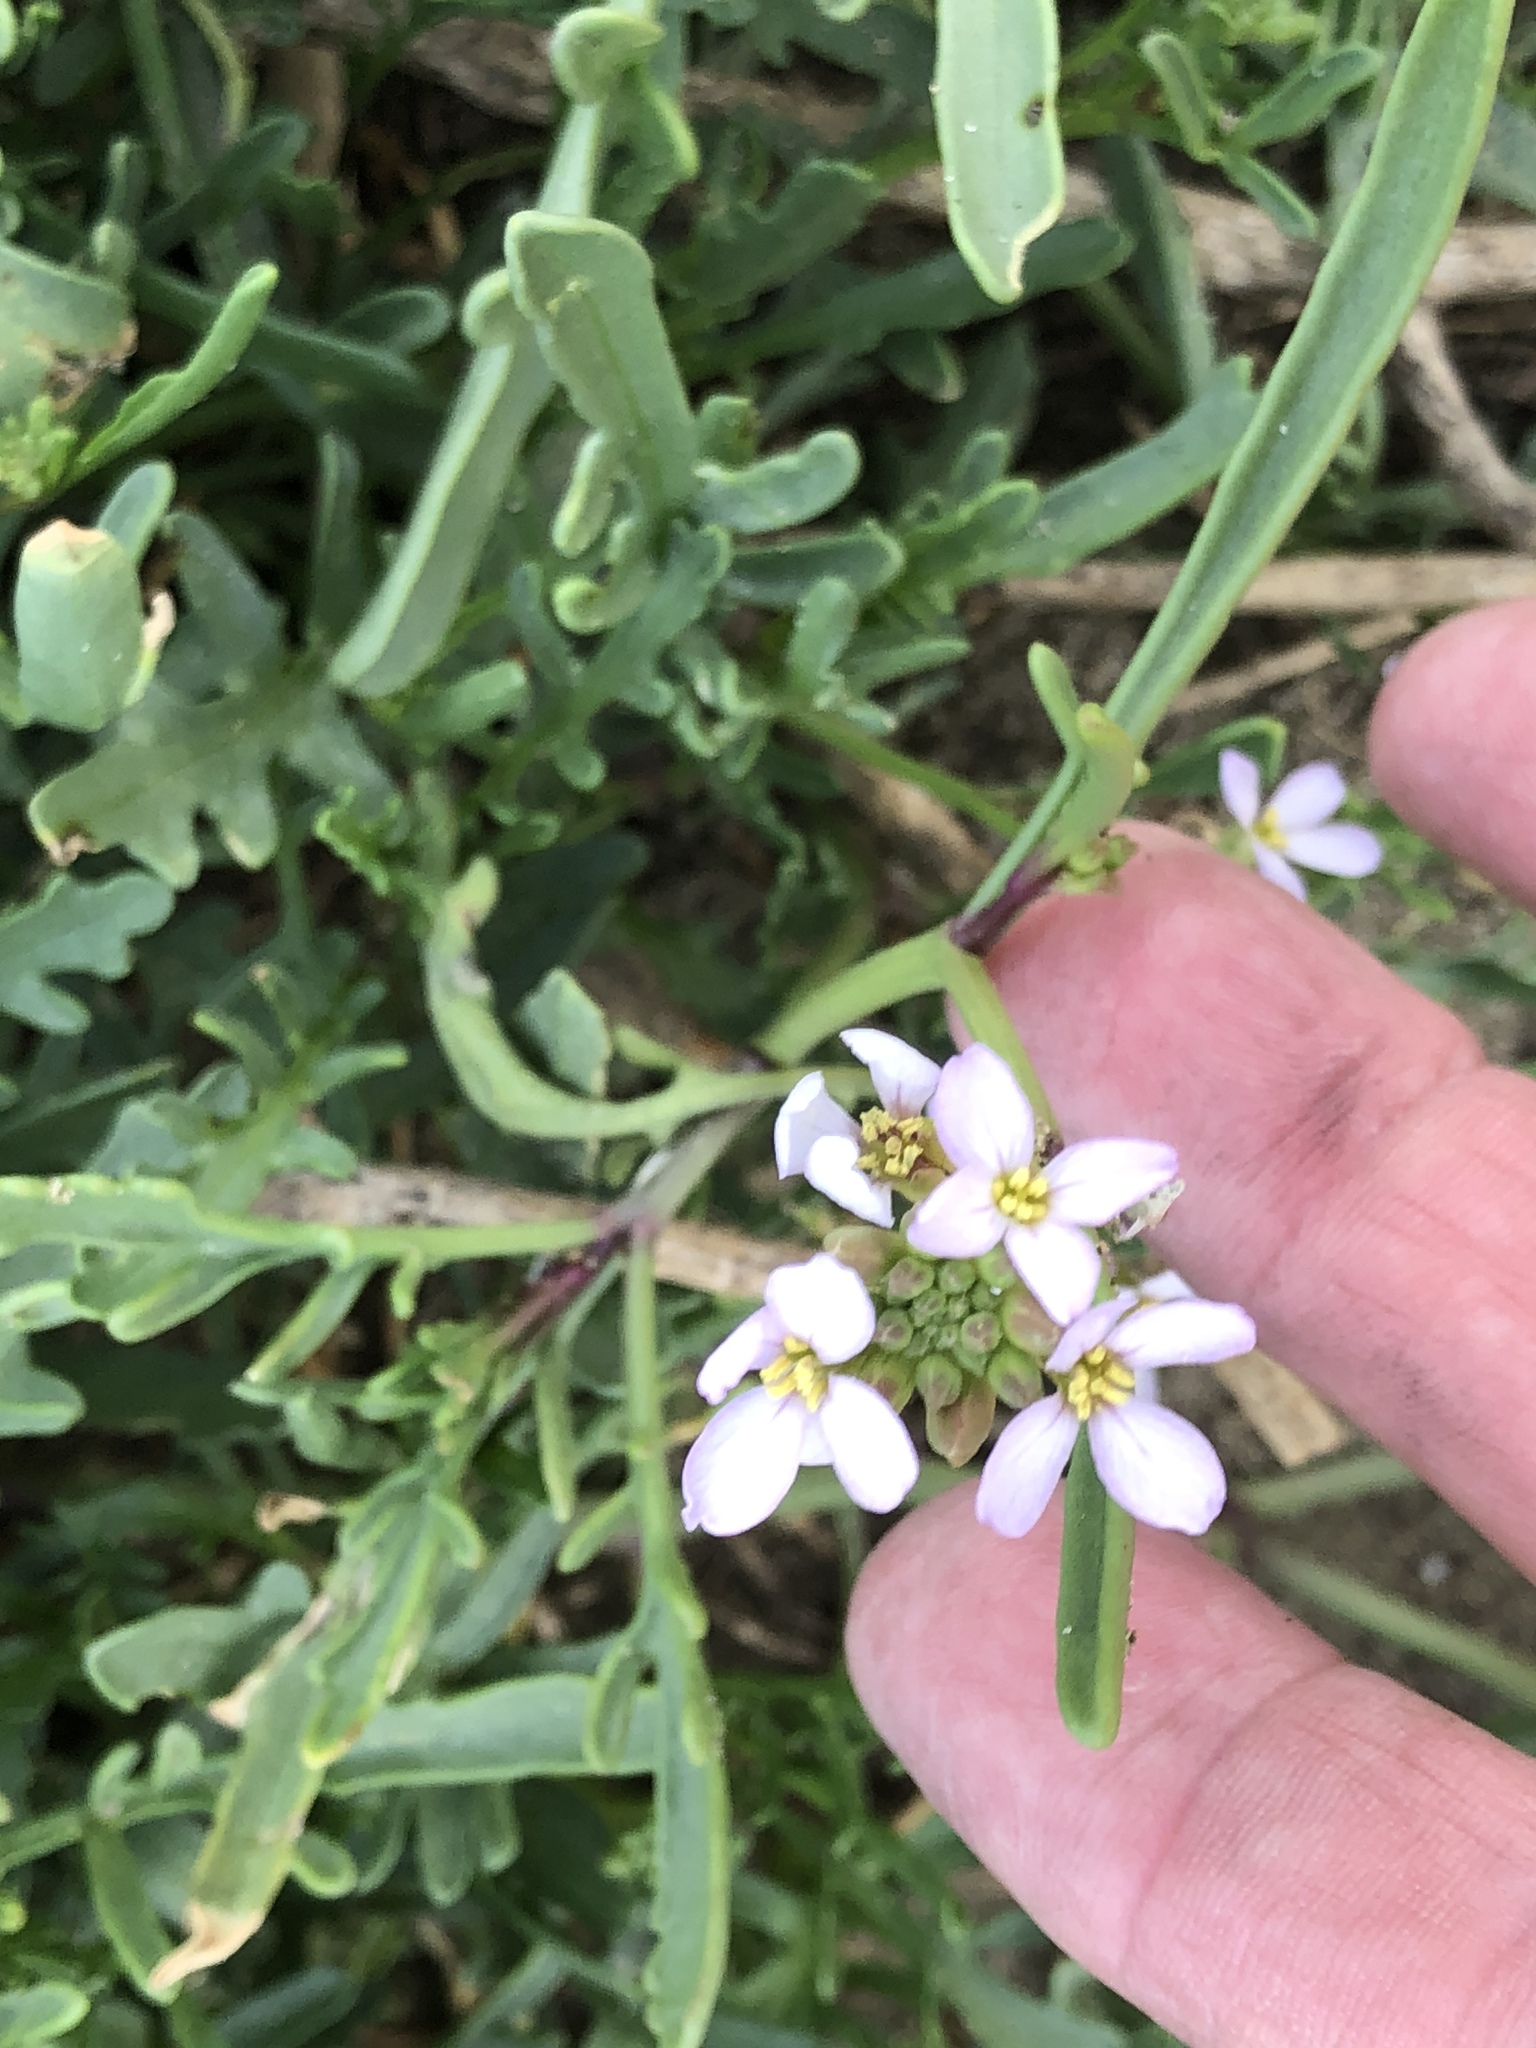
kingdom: Plantae
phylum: Tracheophyta
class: Magnoliopsida
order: Brassicales
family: Brassicaceae
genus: Cakile
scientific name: Cakile maritima
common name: Sea rocket
